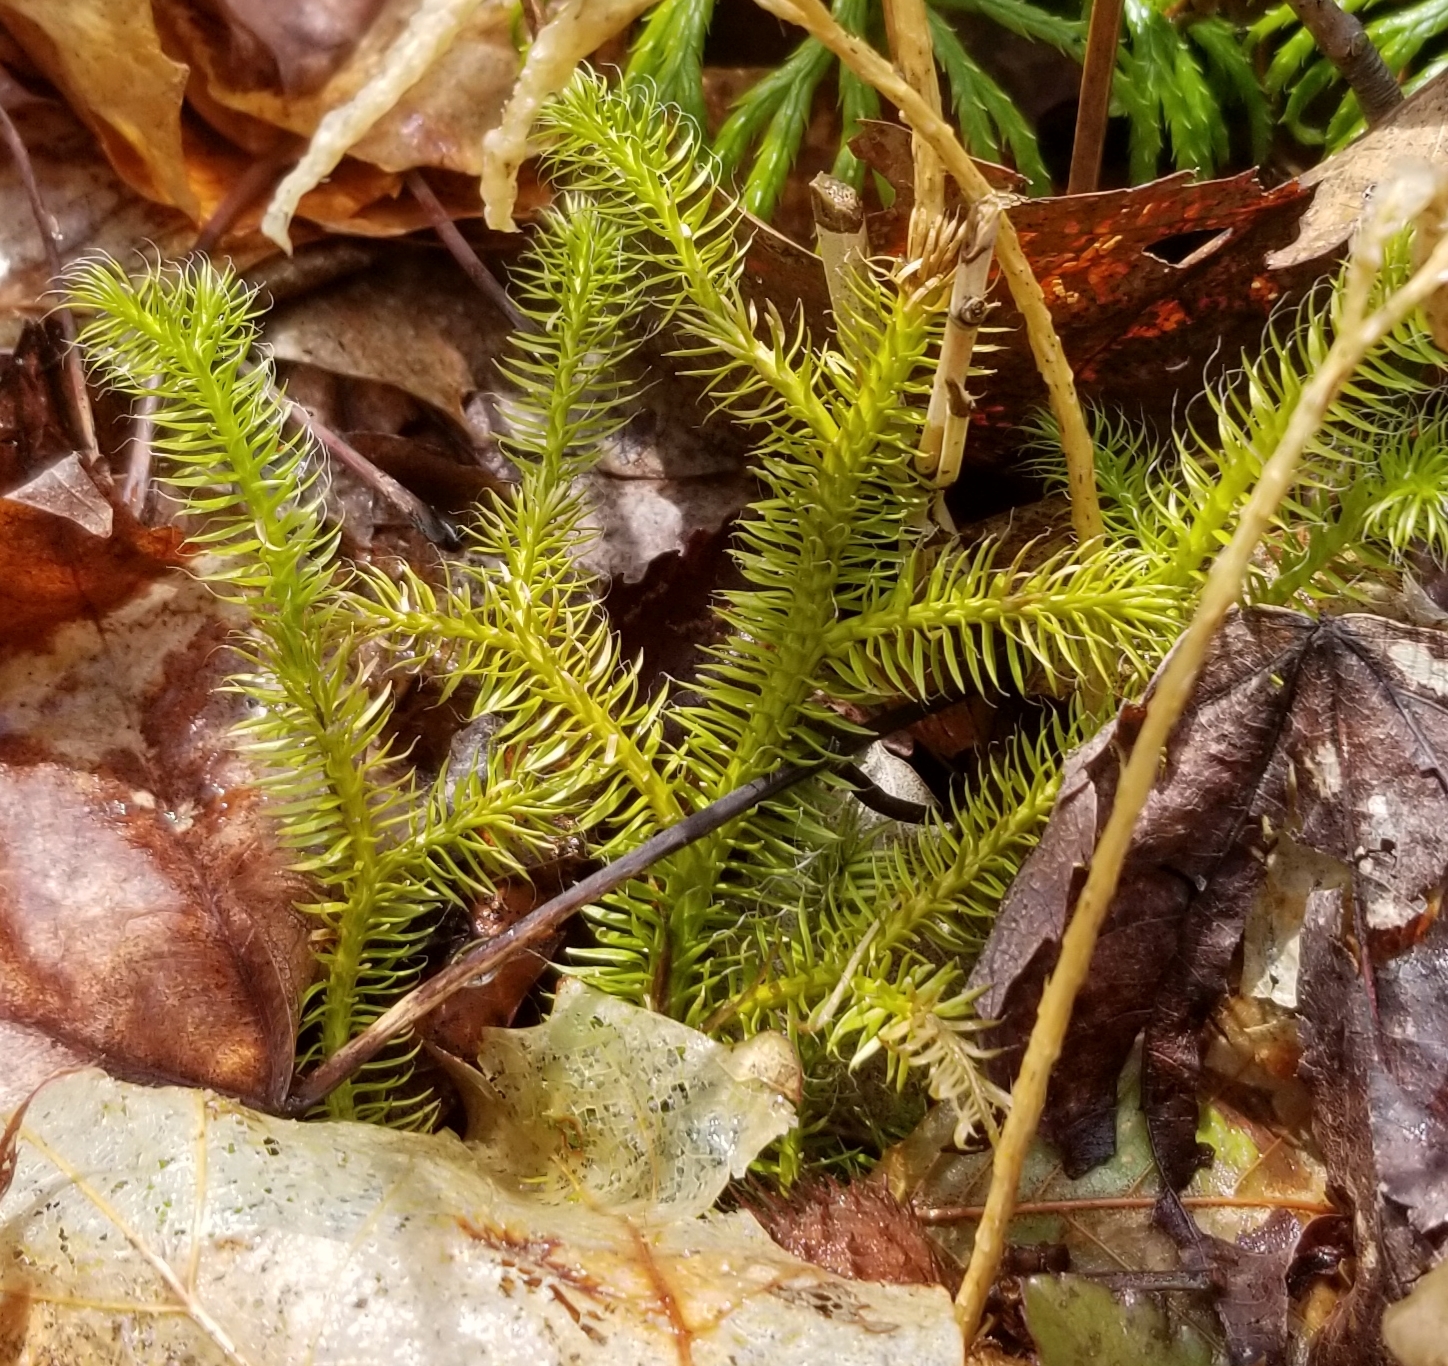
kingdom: Plantae
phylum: Tracheophyta
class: Lycopodiopsida
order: Lycopodiales
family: Lycopodiaceae
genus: Lycopodium
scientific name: Lycopodium clavatum
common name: Stag's-horn clubmoss
